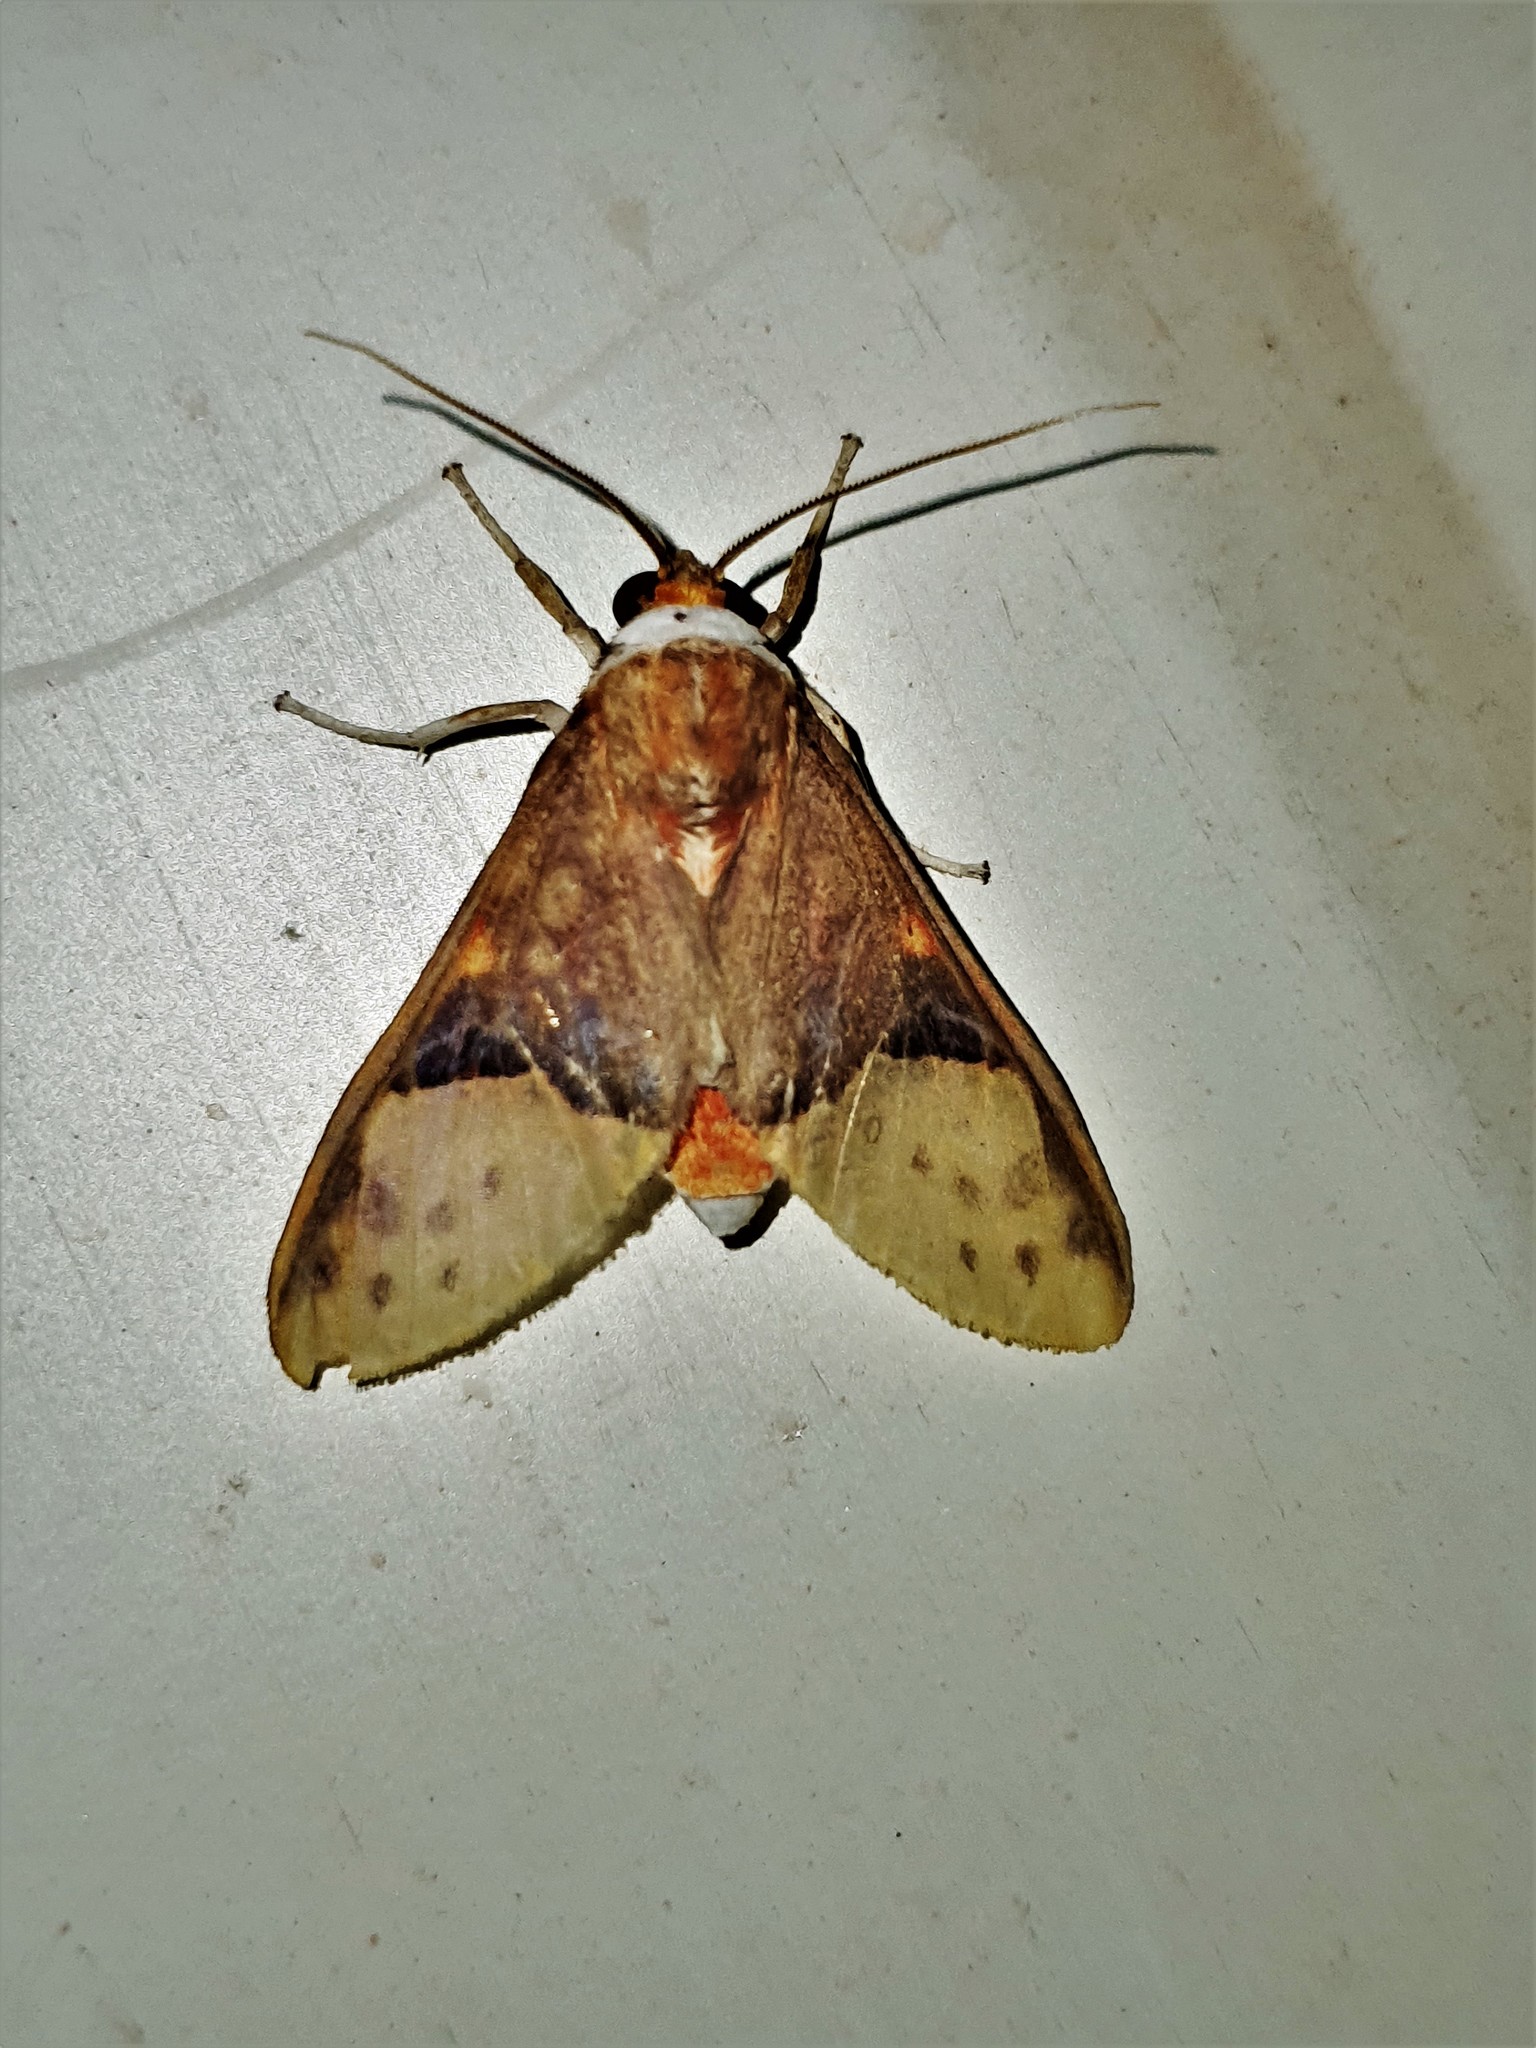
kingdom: Animalia
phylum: Arthropoda
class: Insecta
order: Lepidoptera
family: Erebidae
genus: Evius
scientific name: Evius hippia
